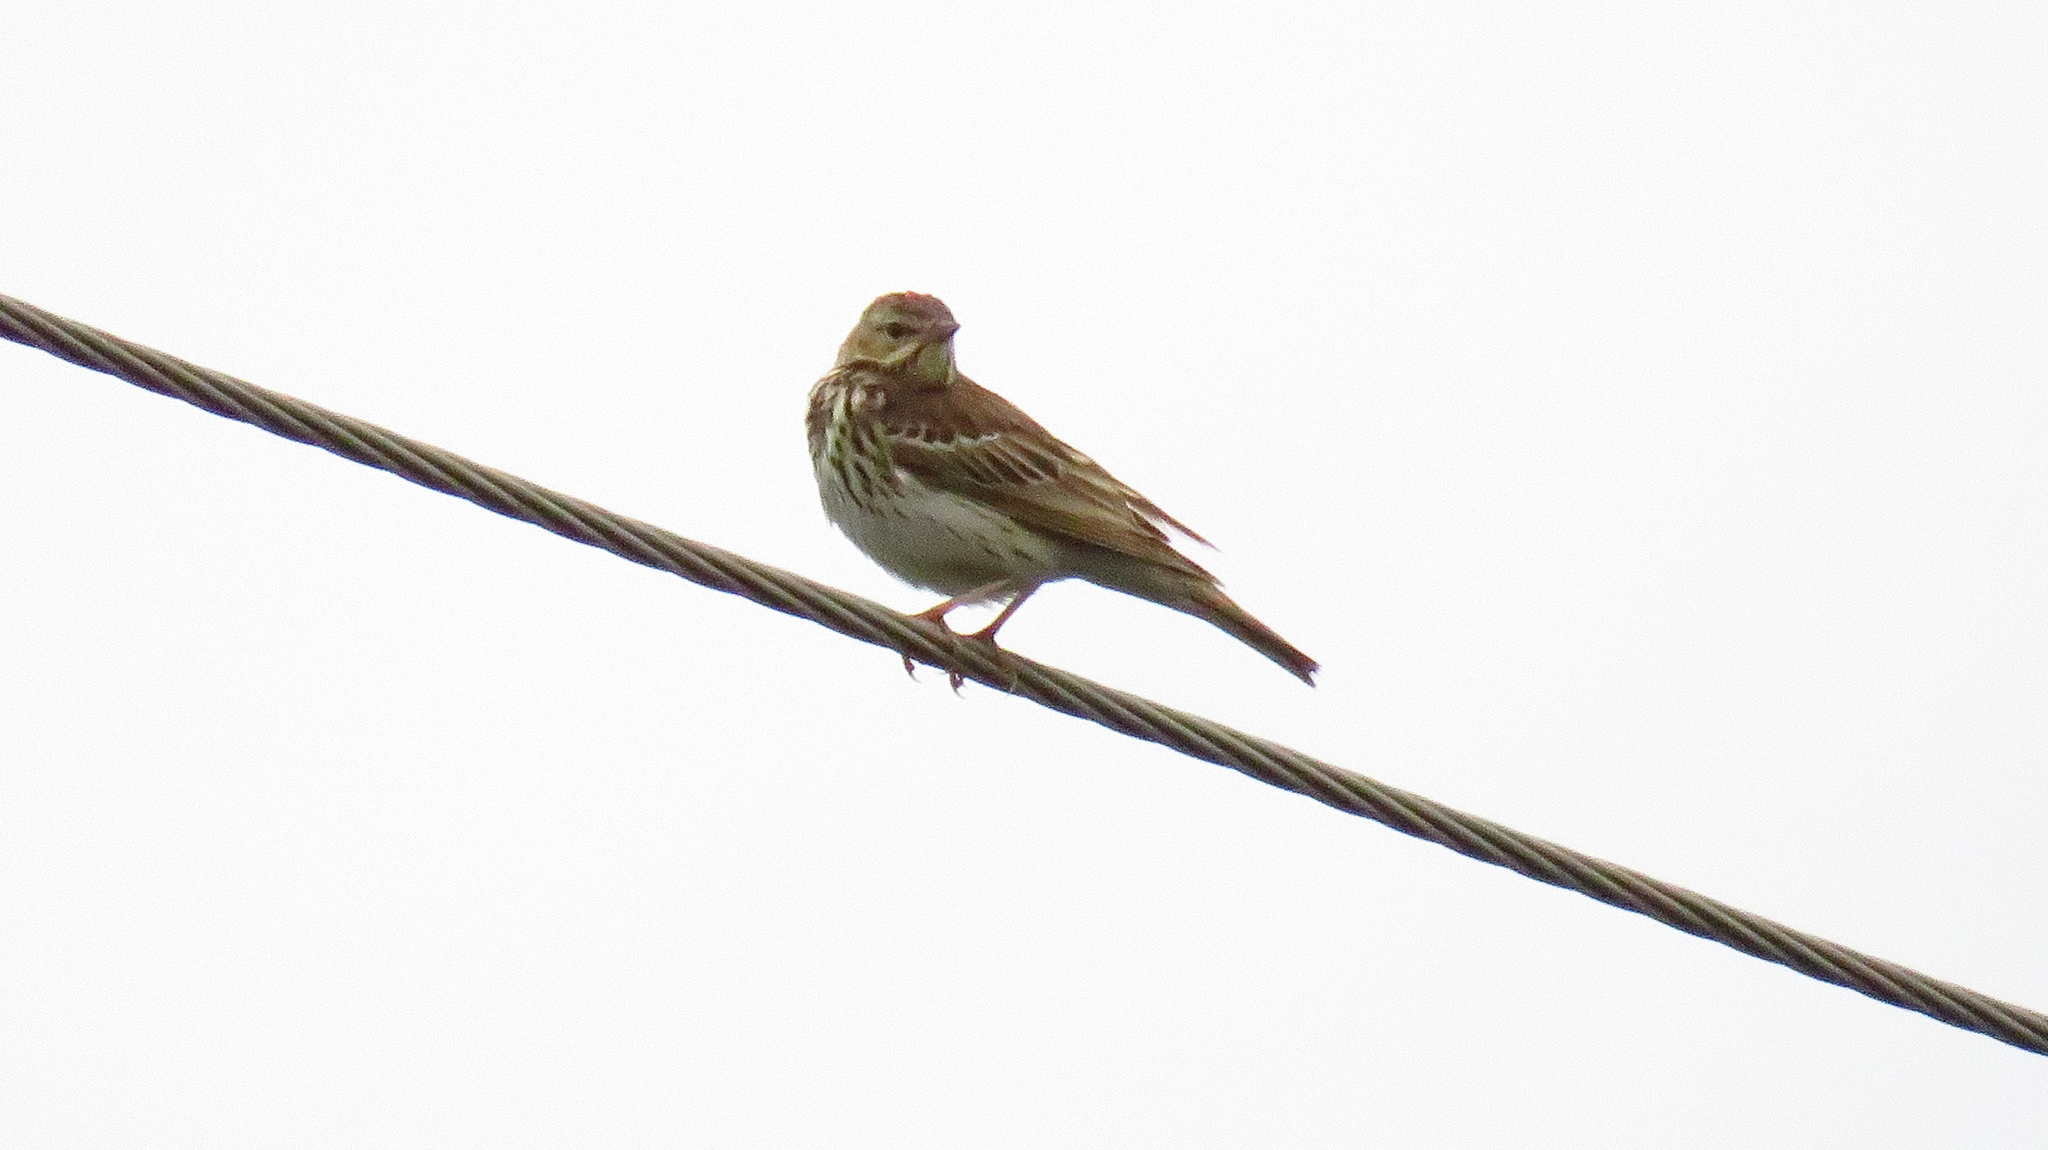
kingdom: Animalia
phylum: Chordata
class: Aves
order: Passeriformes
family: Motacillidae
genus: Anthus
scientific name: Anthus trivialis
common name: Tree pipit
